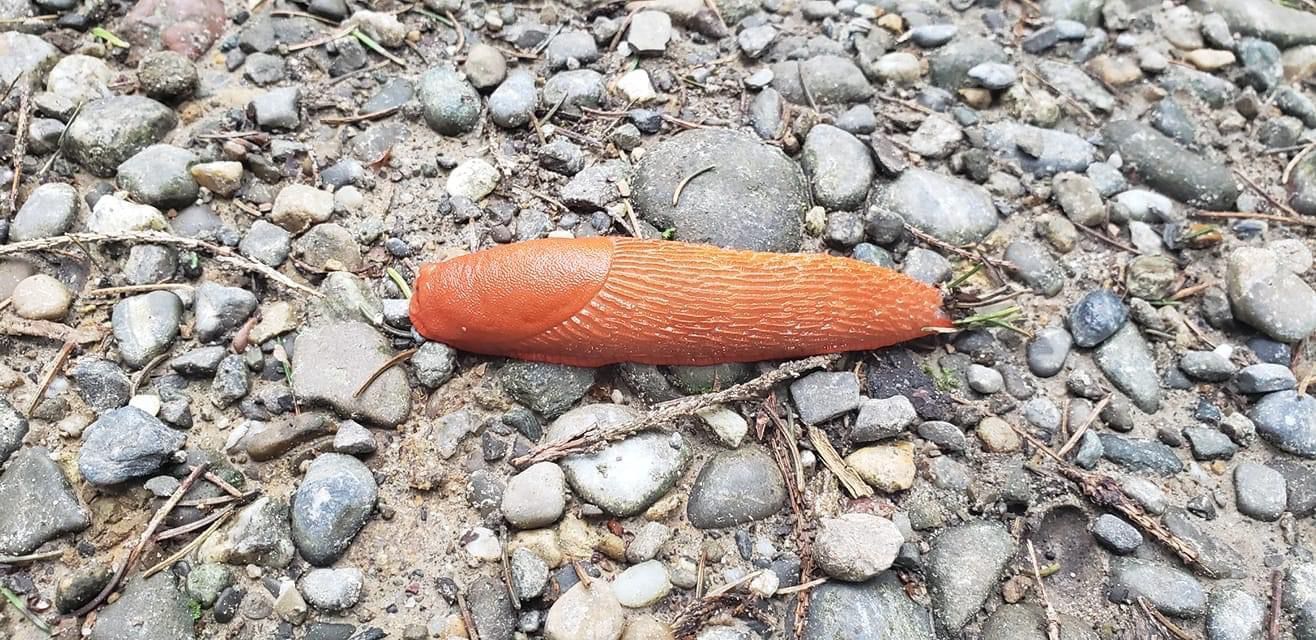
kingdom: Animalia
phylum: Mollusca
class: Gastropoda
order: Stylommatophora
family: Arionidae
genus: Arion
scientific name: Arion rufus
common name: Chocolate arion
